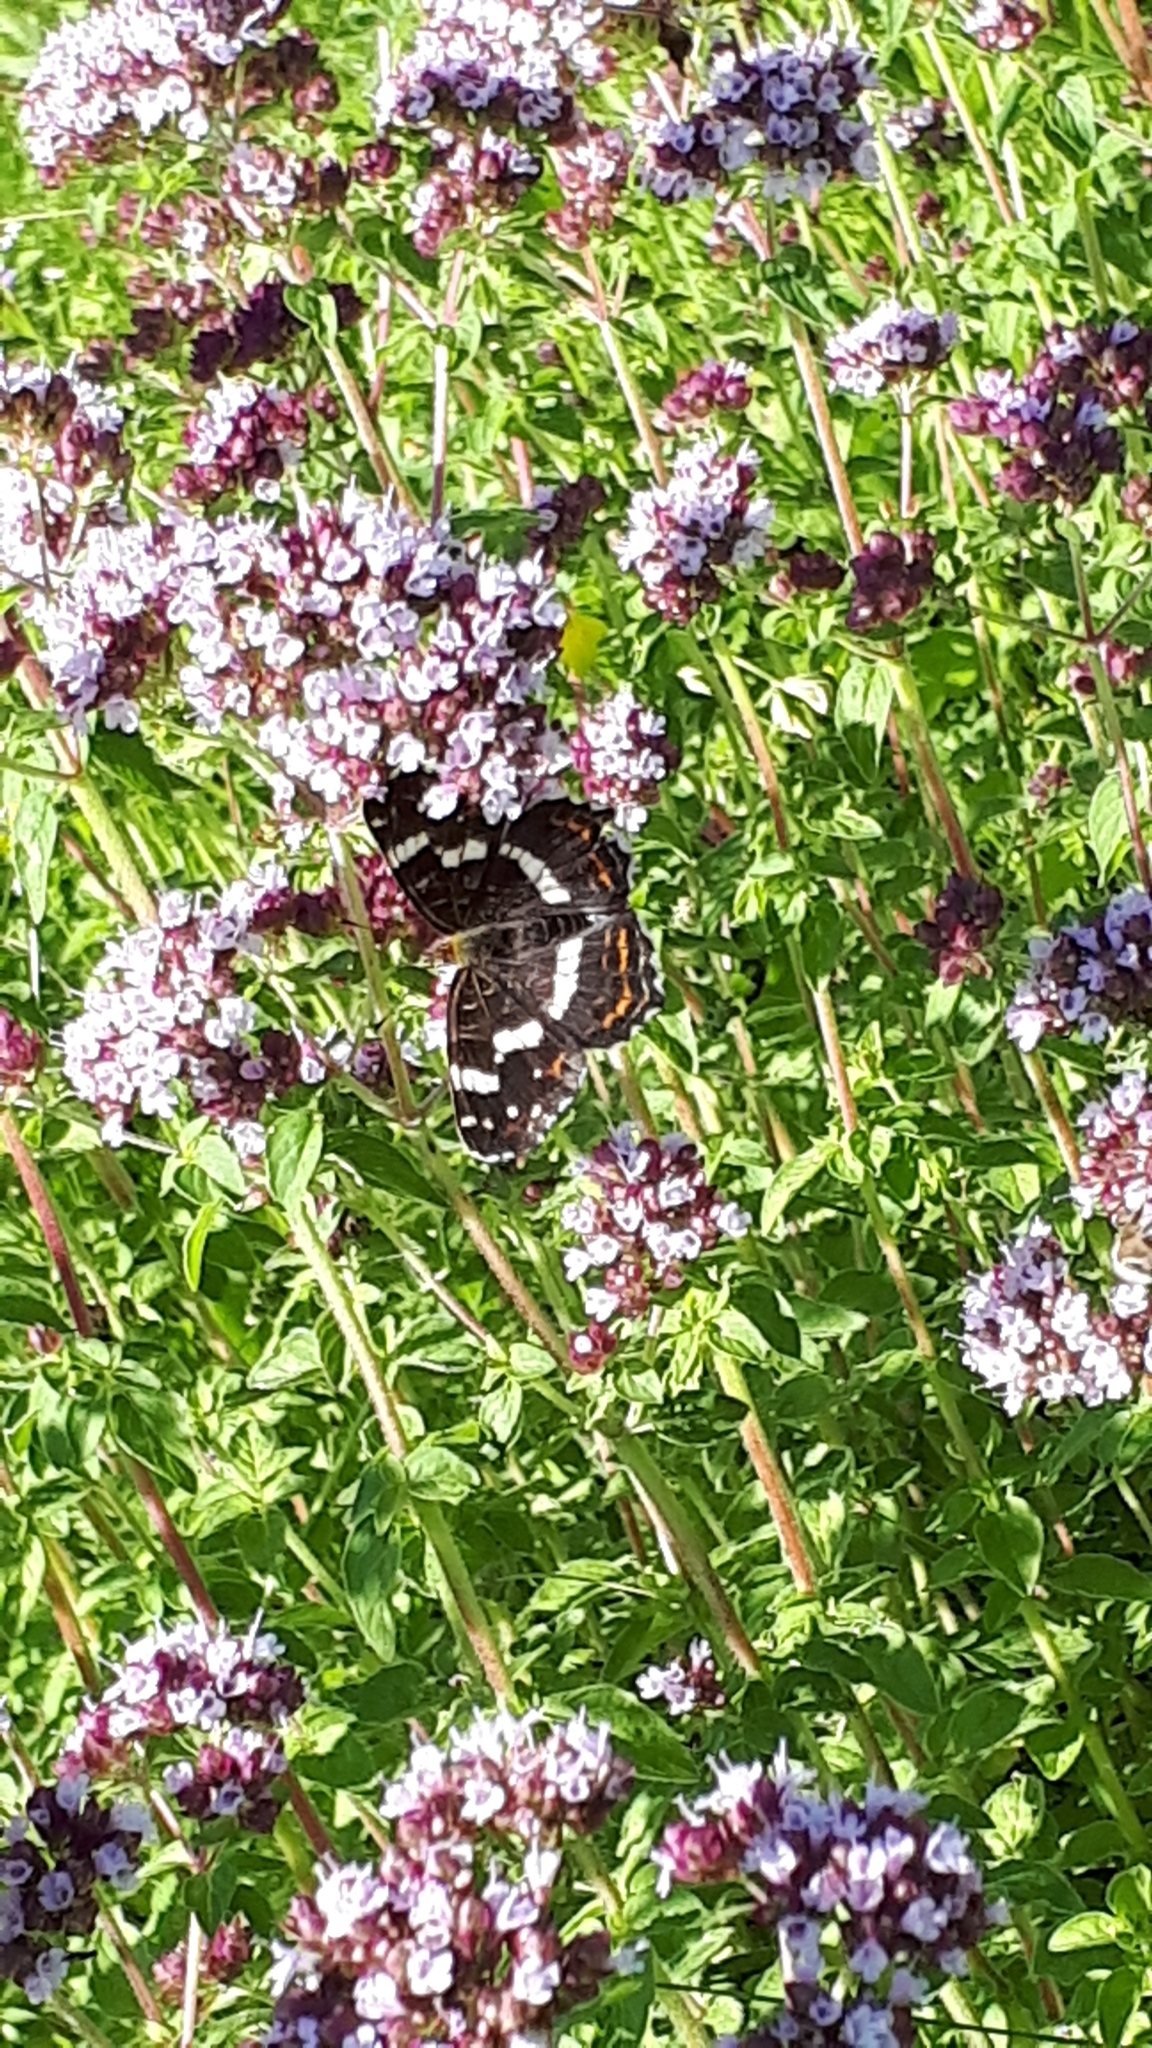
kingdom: Animalia
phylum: Arthropoda
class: Insecta
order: Lepidoptera
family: Nymphalidae
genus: Araschnia
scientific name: Araschnia levana
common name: Map butterfly
